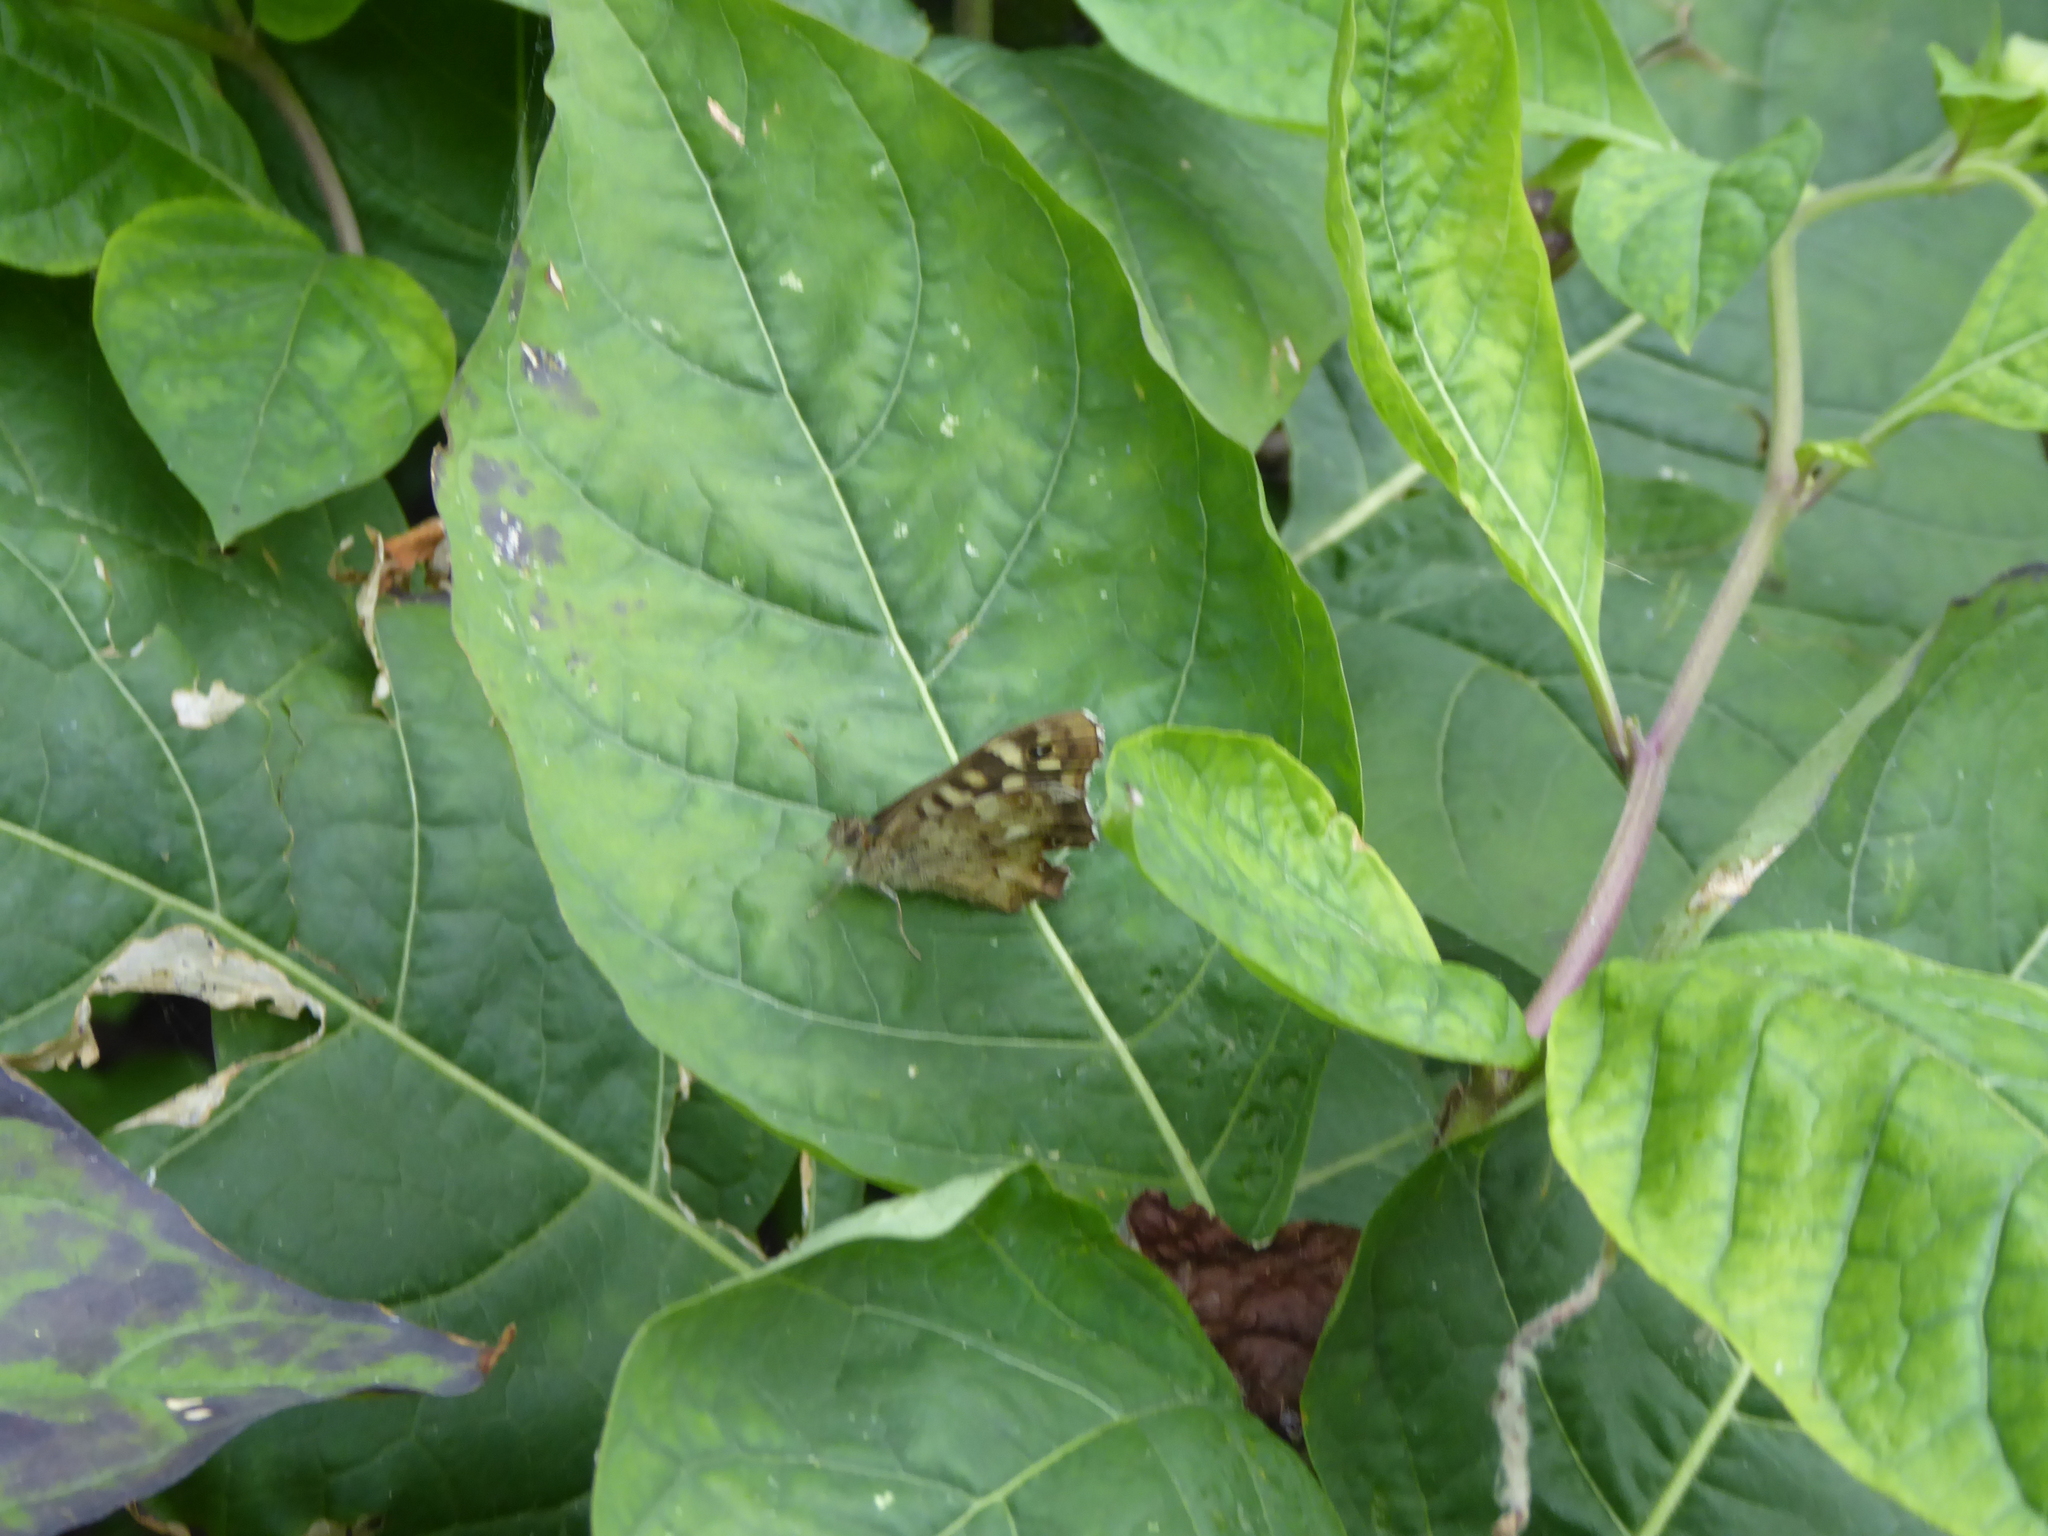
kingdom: Animalia
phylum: Arthropoda
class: Insecta
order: Lepidoptera
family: Nymphalidae
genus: Pararge
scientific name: Pararge aegeria
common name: Speckled wood
